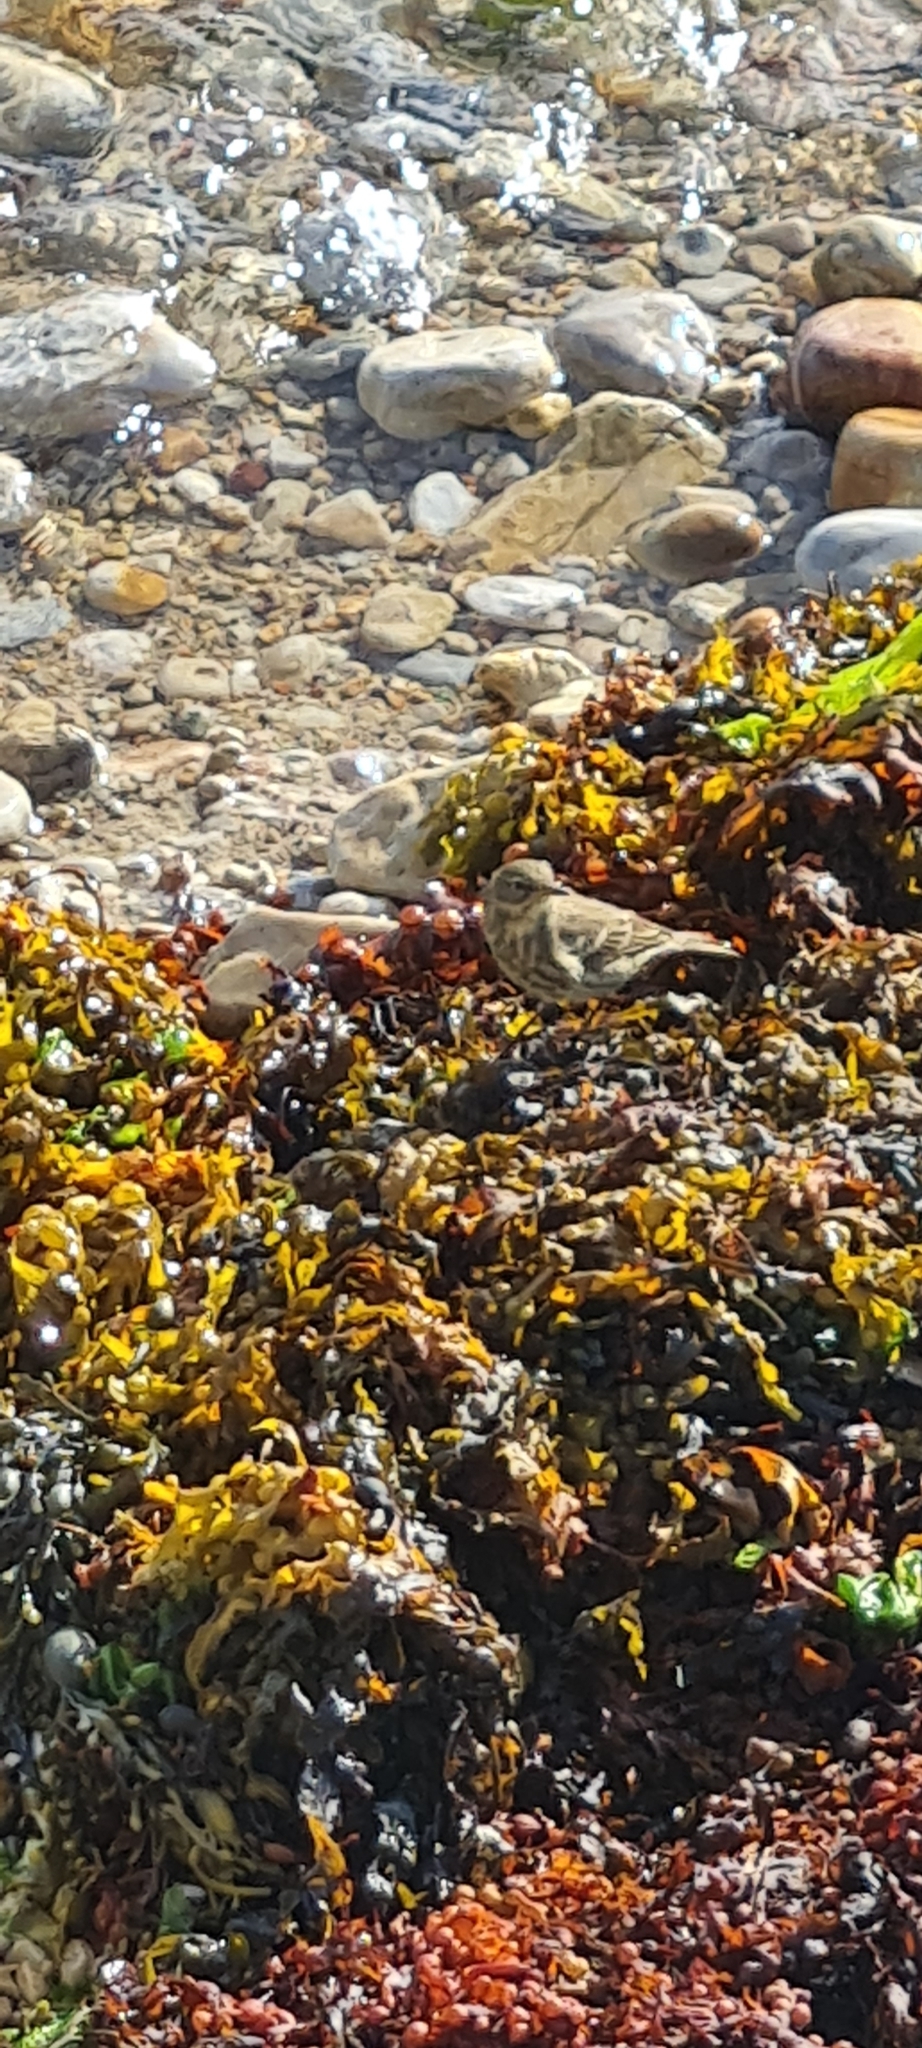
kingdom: Animalia
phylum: Chordata
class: Aves
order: Passeriformes
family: Motacillidae
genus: Anthus
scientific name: Anthus petrosus
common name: Eurasian rock pipit
